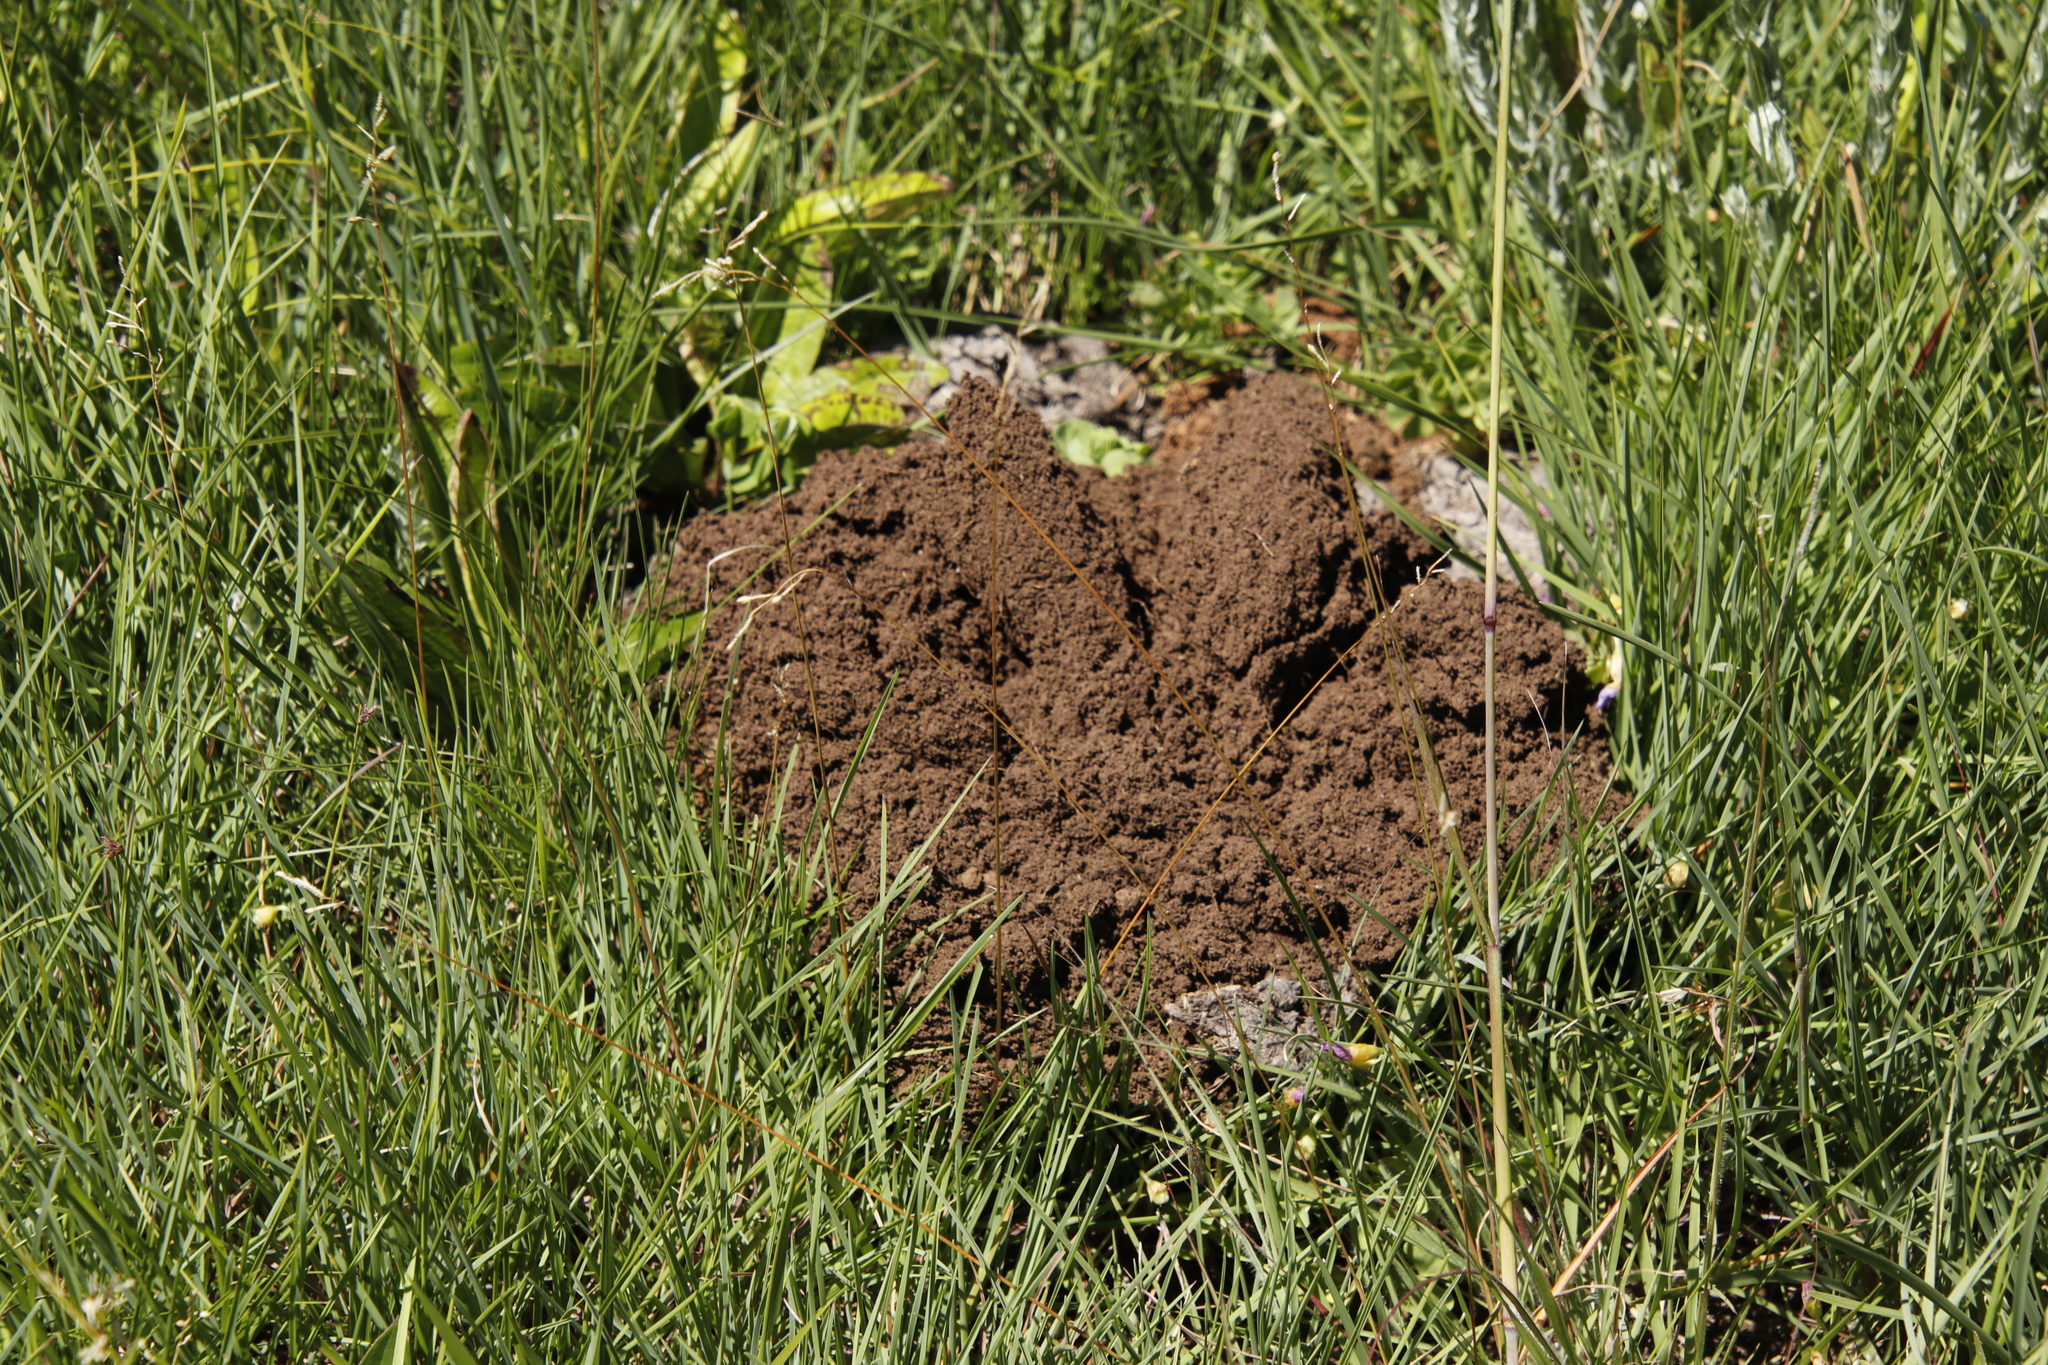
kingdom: Animalia
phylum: Chordata
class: Mammalia
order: Rodentia
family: Bathyergidae
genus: Cryptomys
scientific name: Cryptomys hottentotus
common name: Southern african mole-rat
